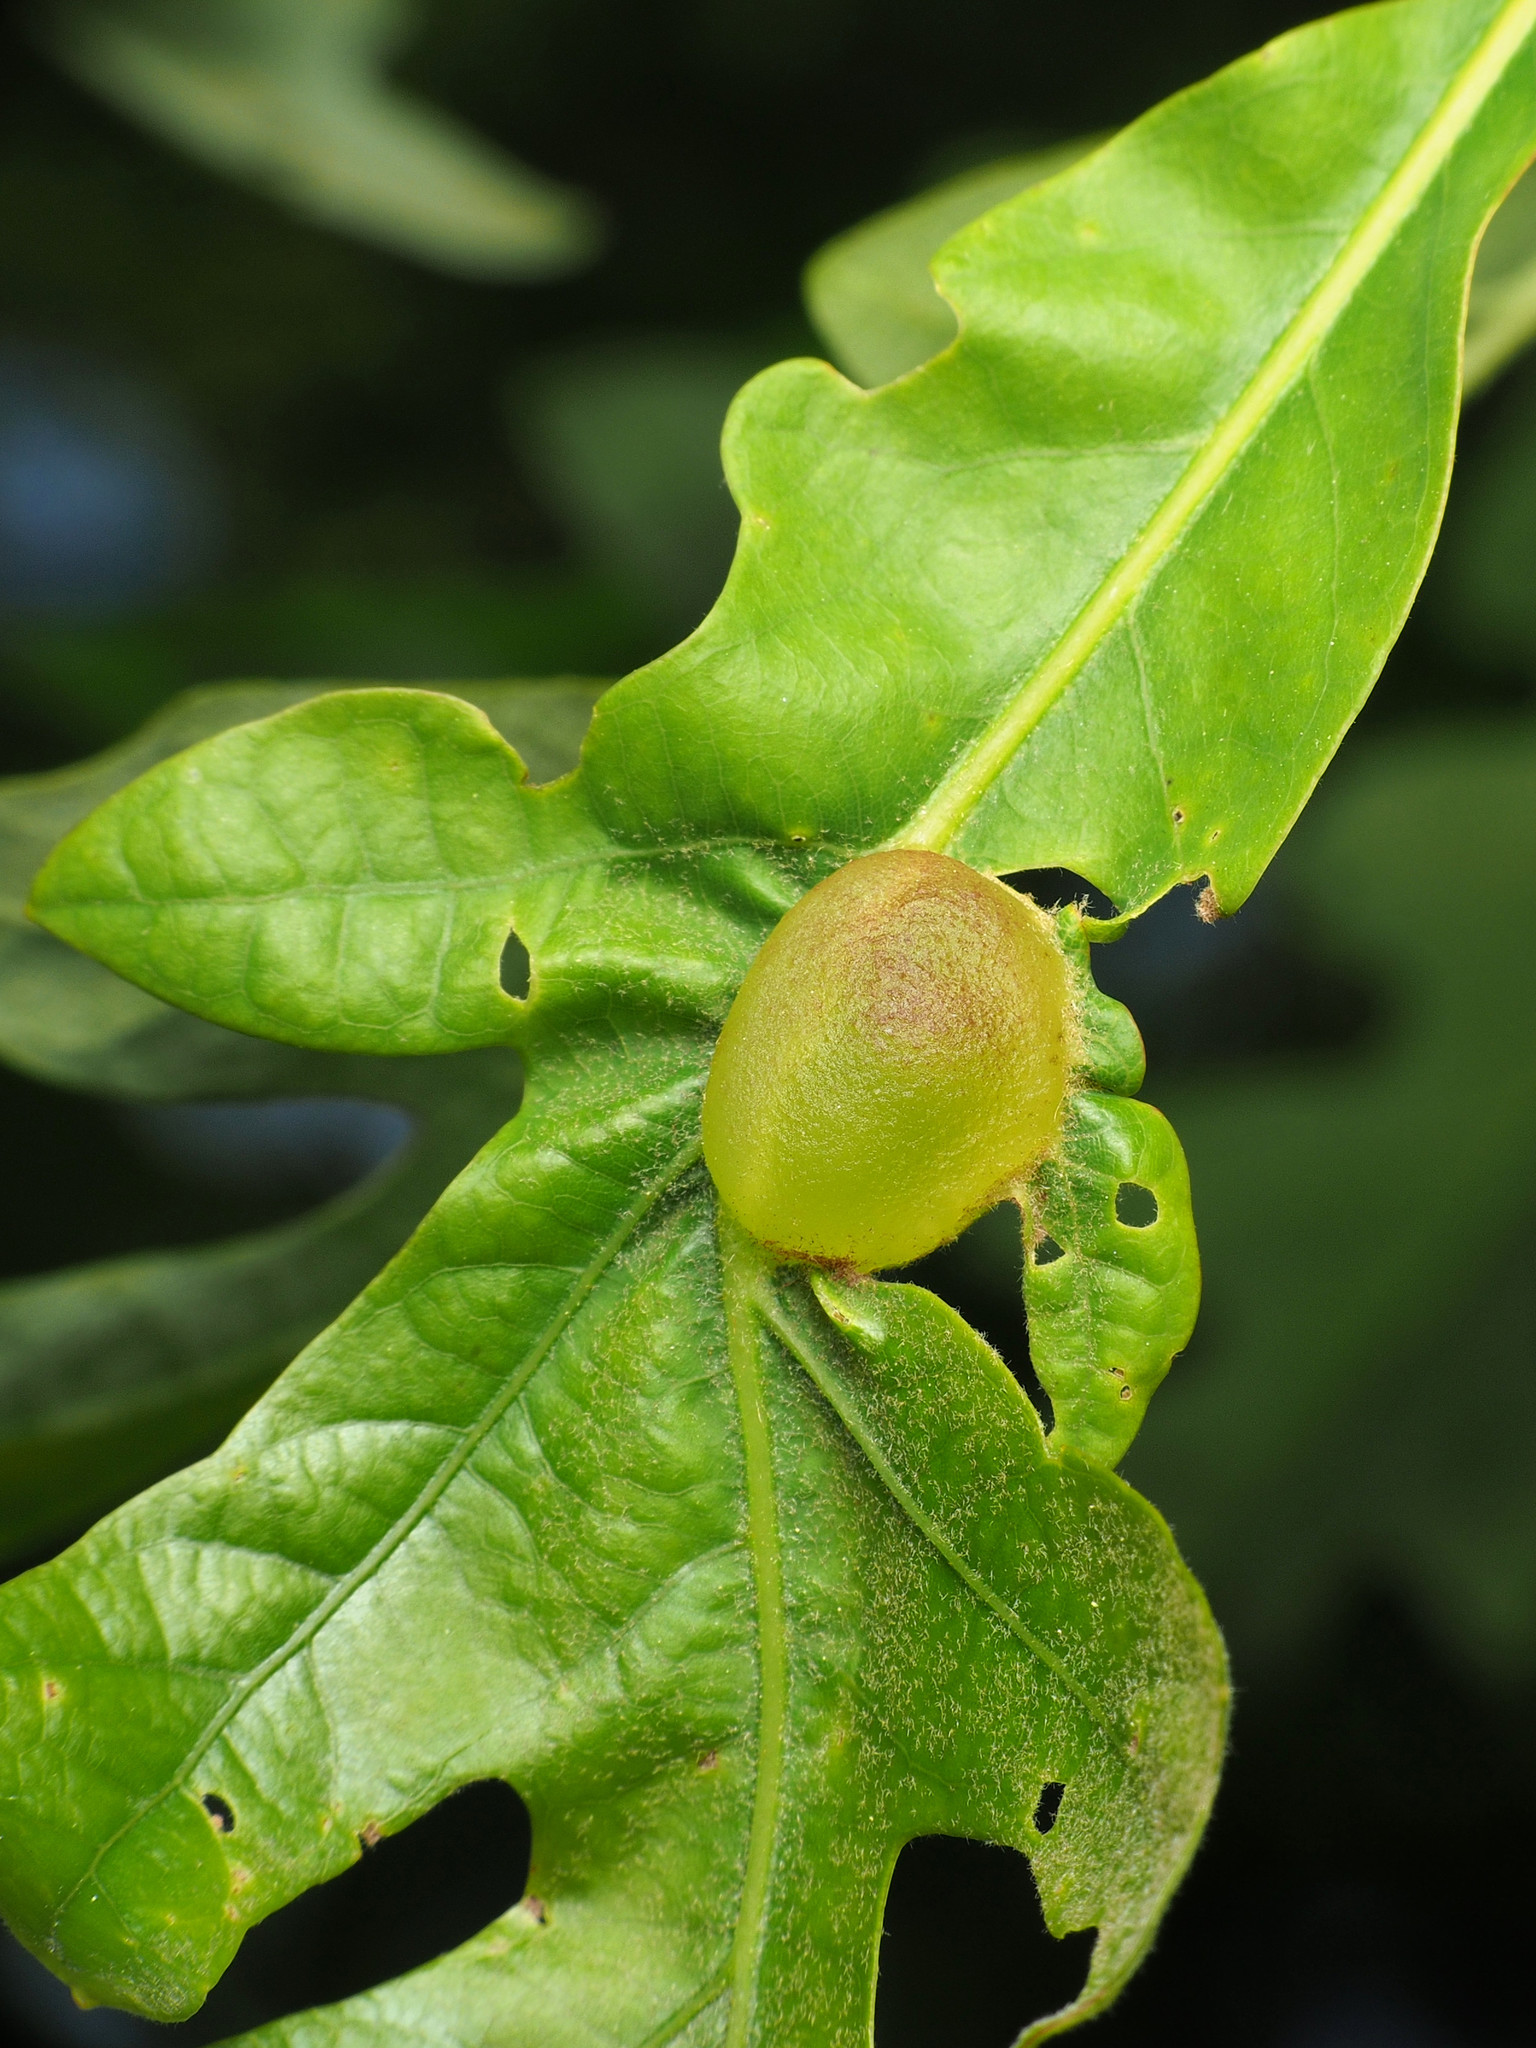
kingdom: Animalia
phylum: Arthropoda
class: Insecta
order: Hymenoptera
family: Cynipidae
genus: Neuroterus
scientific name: Neuroterus quercusirregularis
